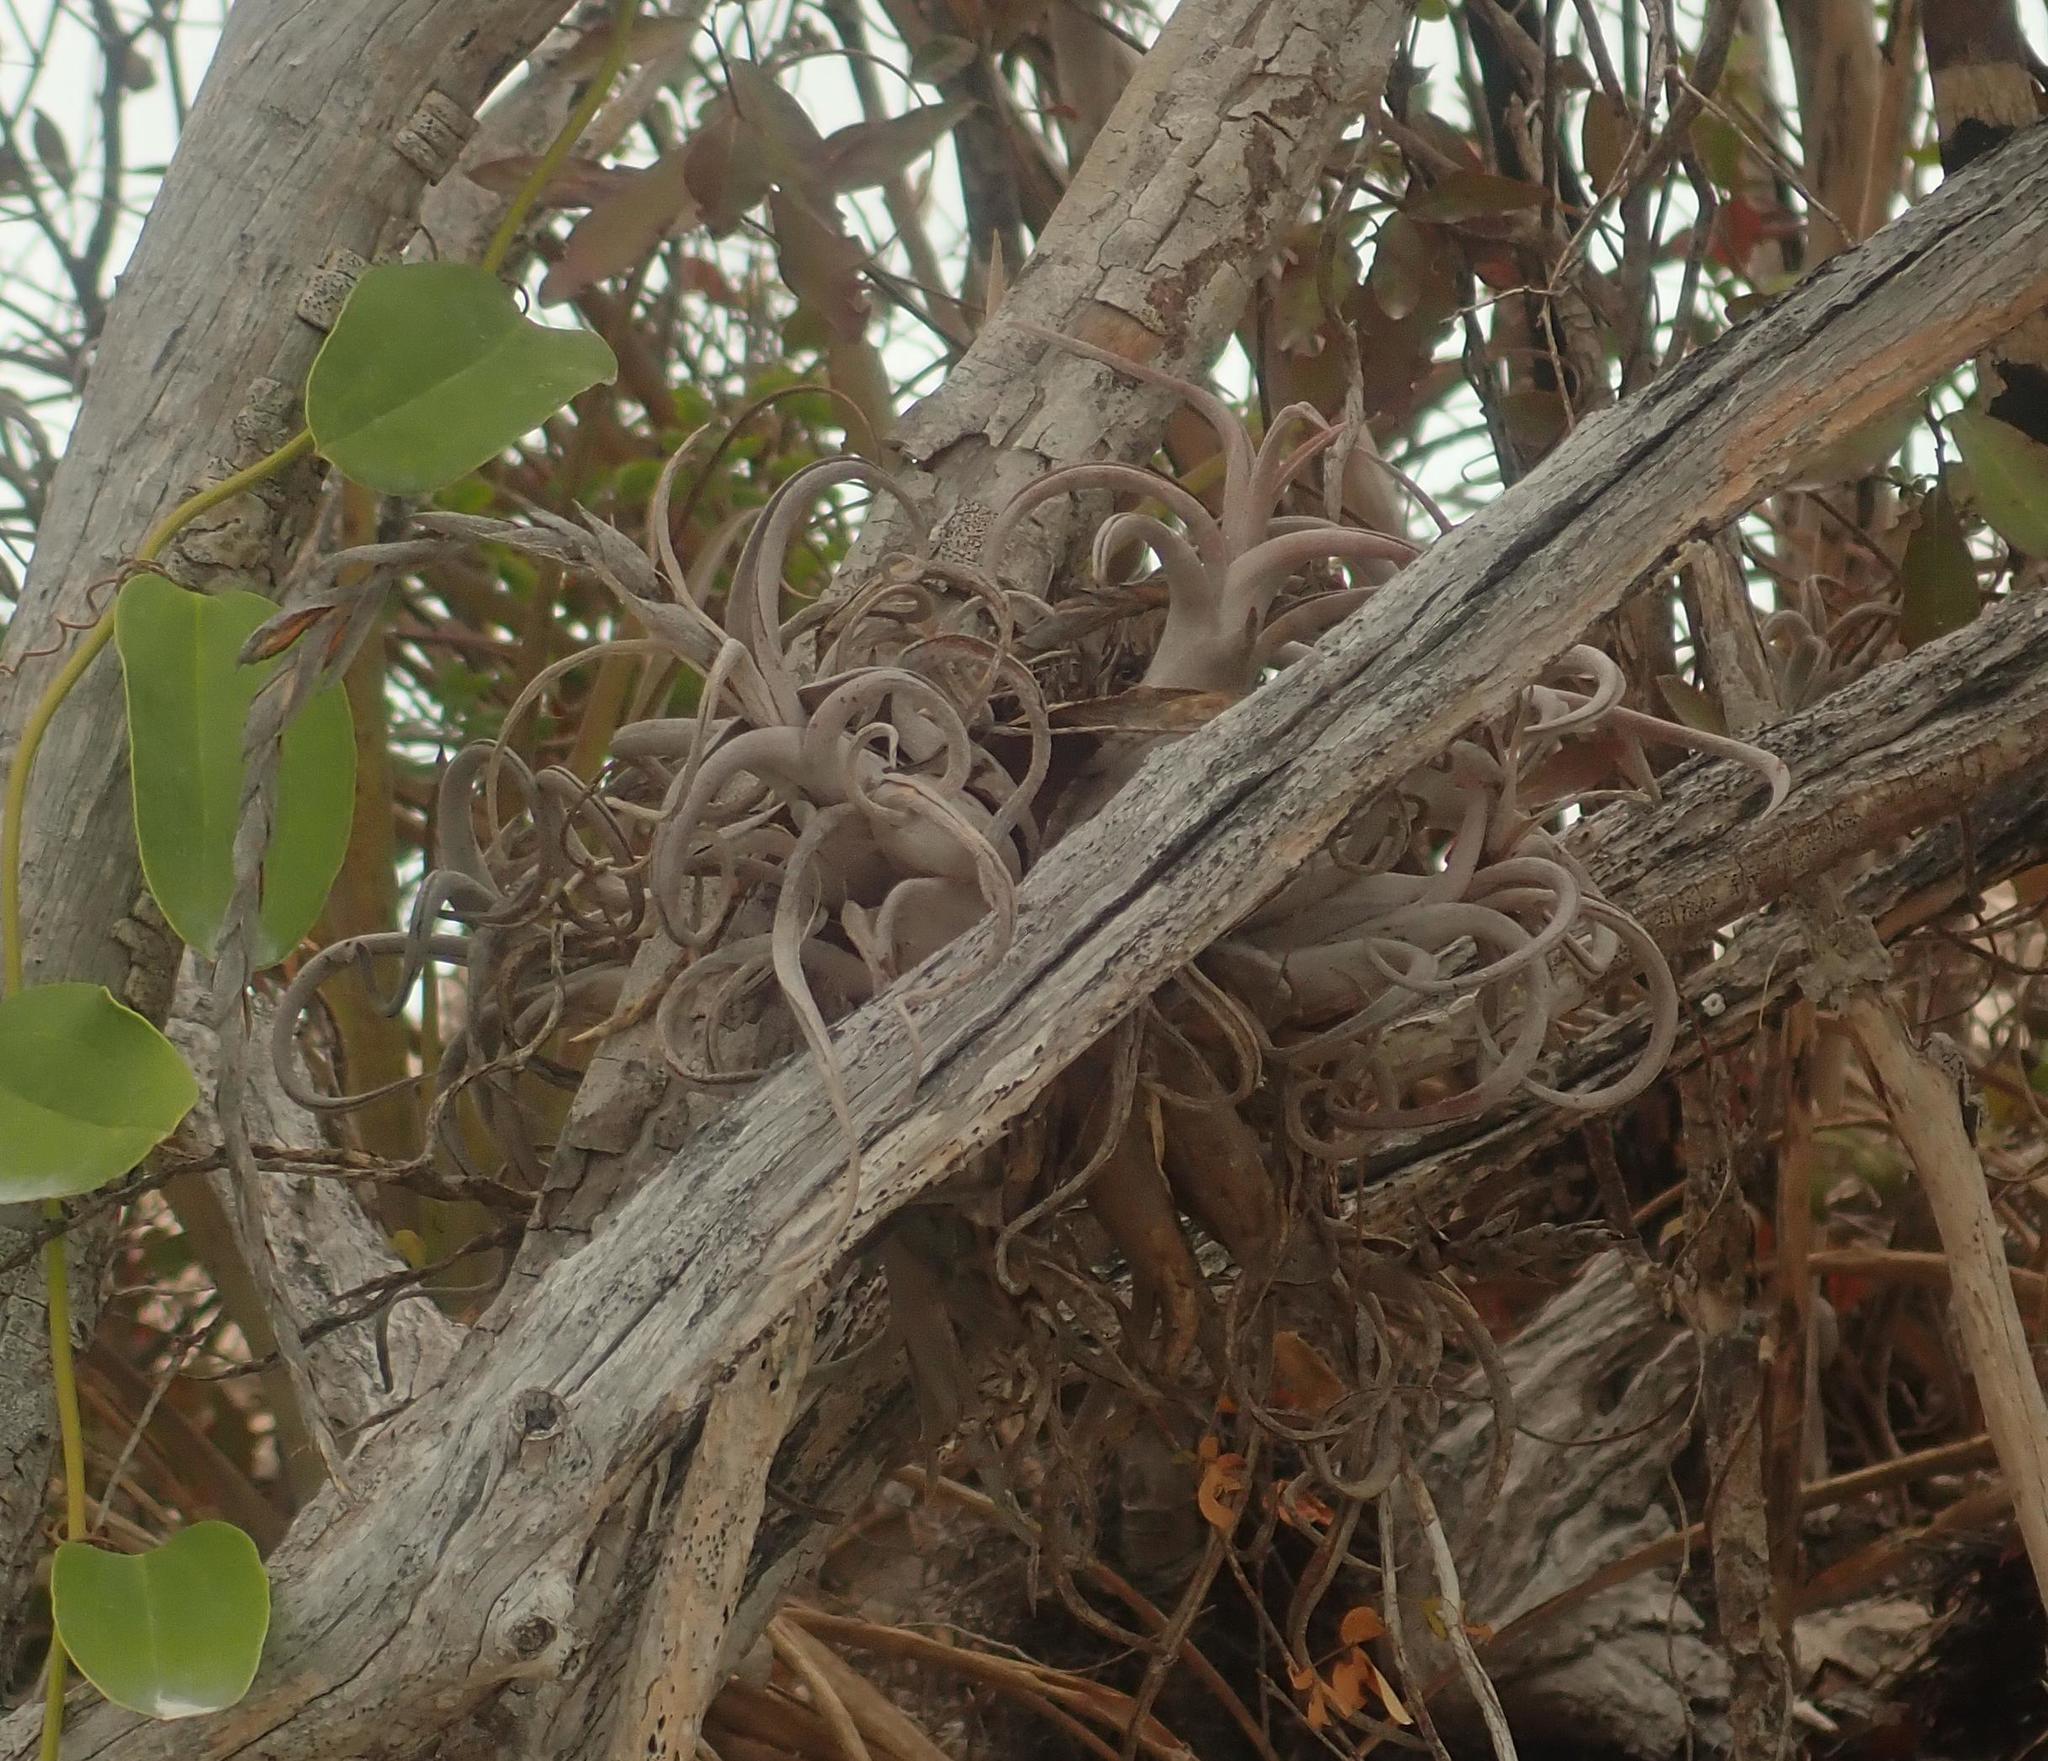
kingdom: Plantae
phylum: Tracheophyta
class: Liliopsida
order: Poales
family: Bromeliaceae
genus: Tillandsia
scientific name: Tillandsia paucifolia
